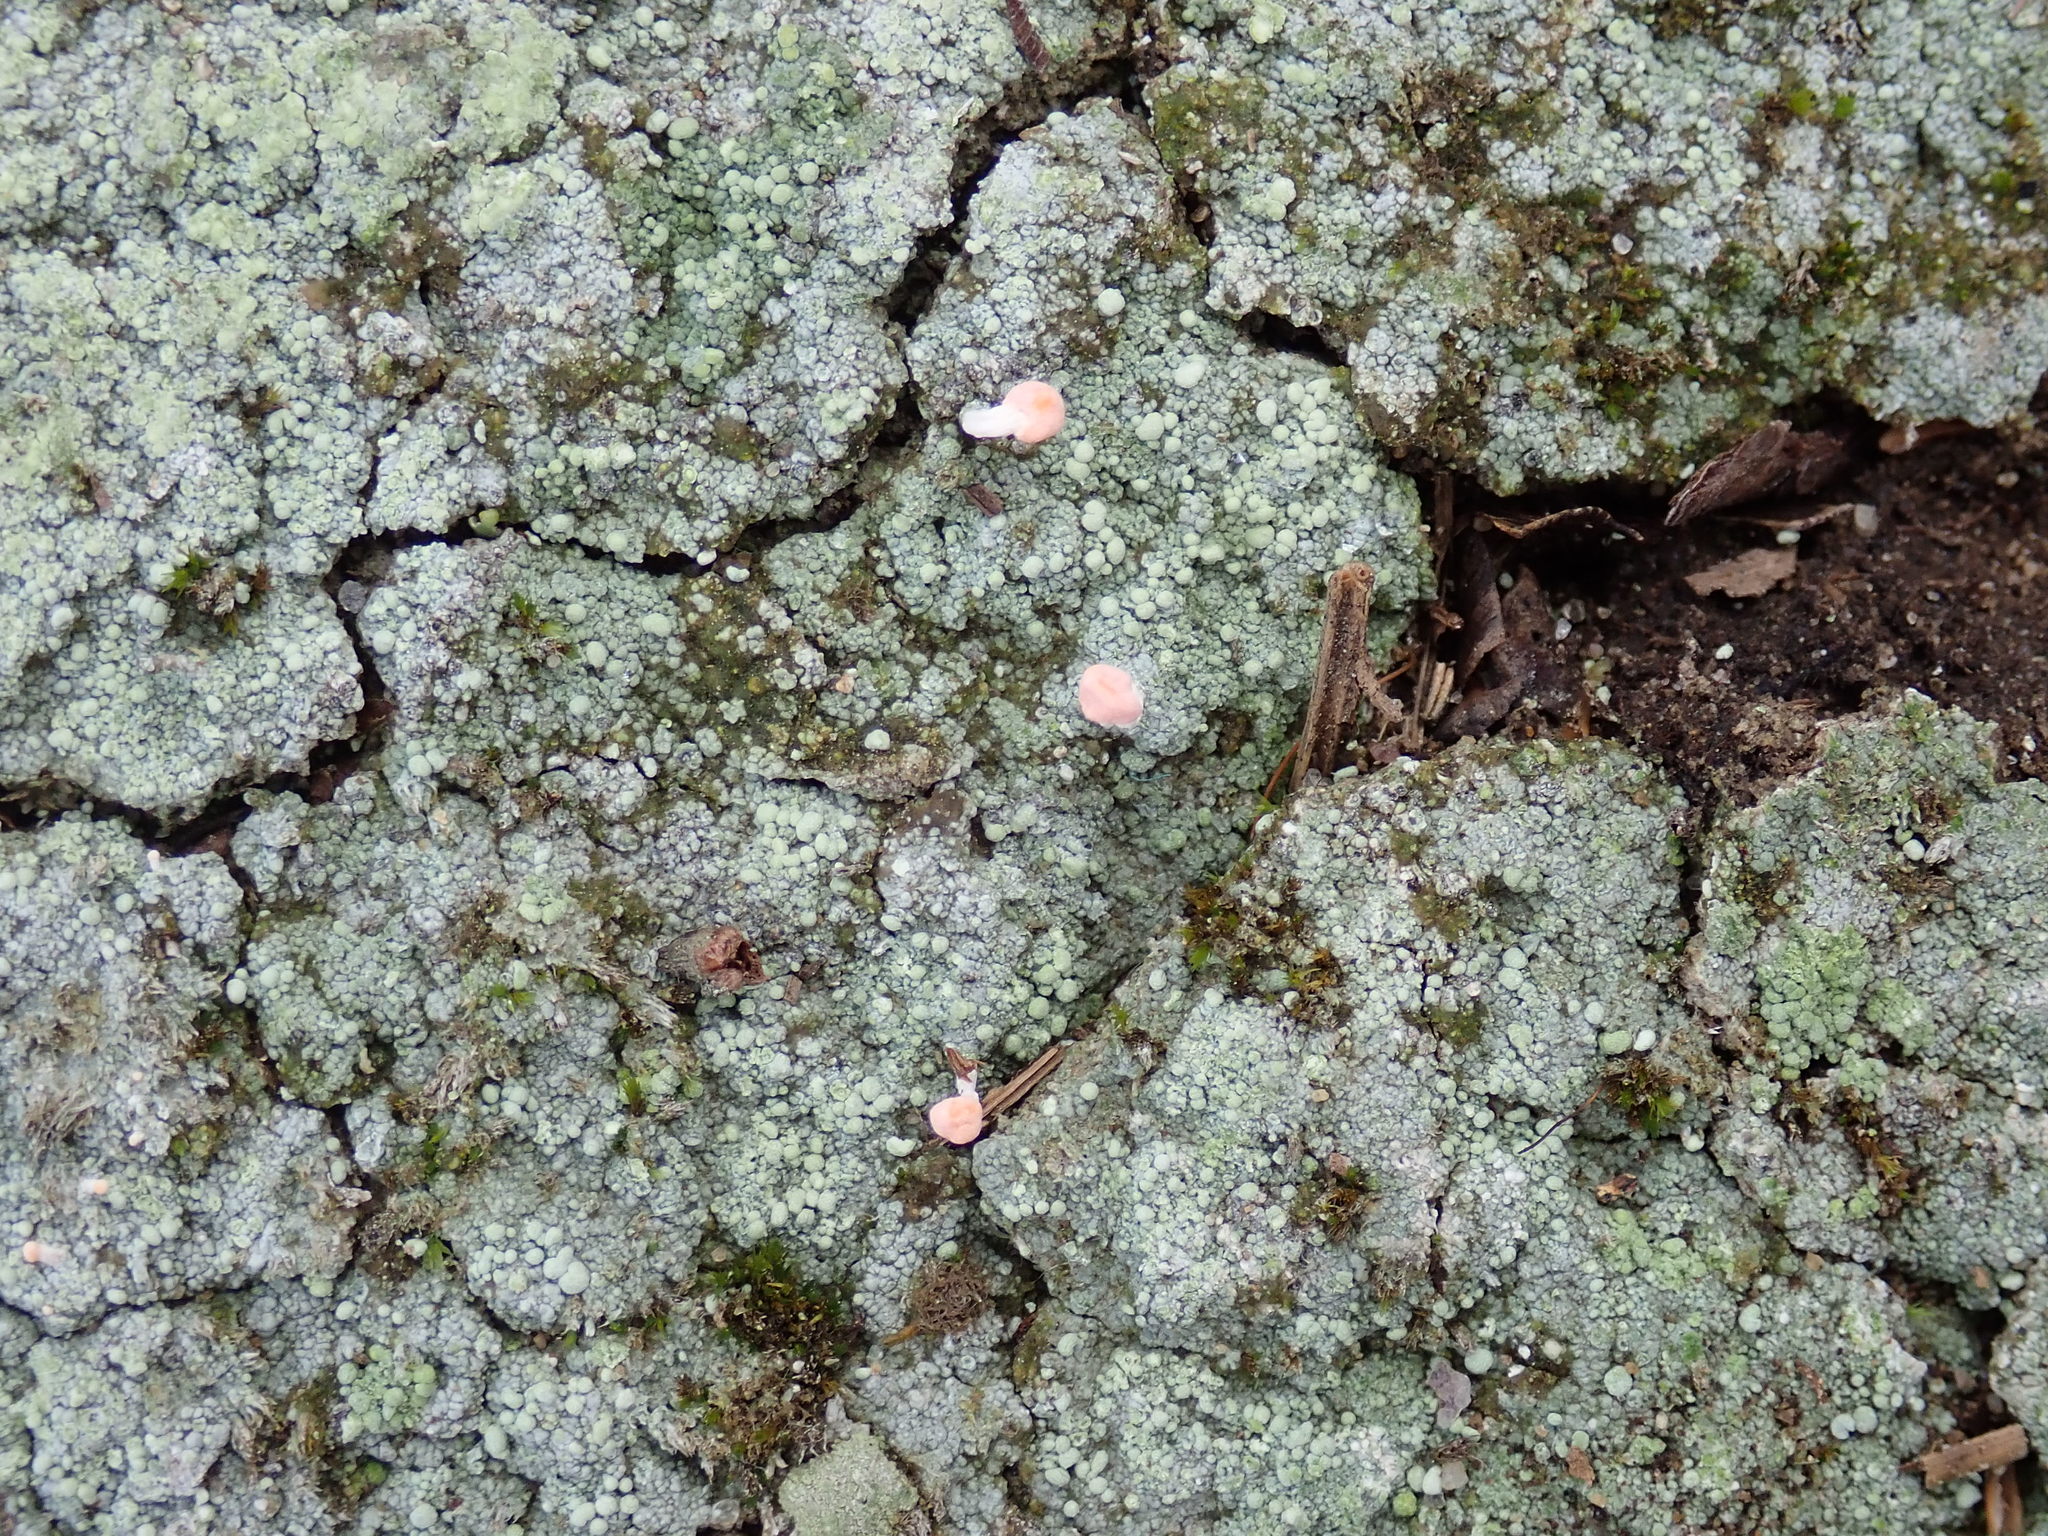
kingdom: Fungi
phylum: Ascomycota
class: Lecanoromycetes
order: Pertusariales
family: Icmadophilaceae
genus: Dibaeis
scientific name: Dibaeis baeomyces
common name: Pink earth lichen
